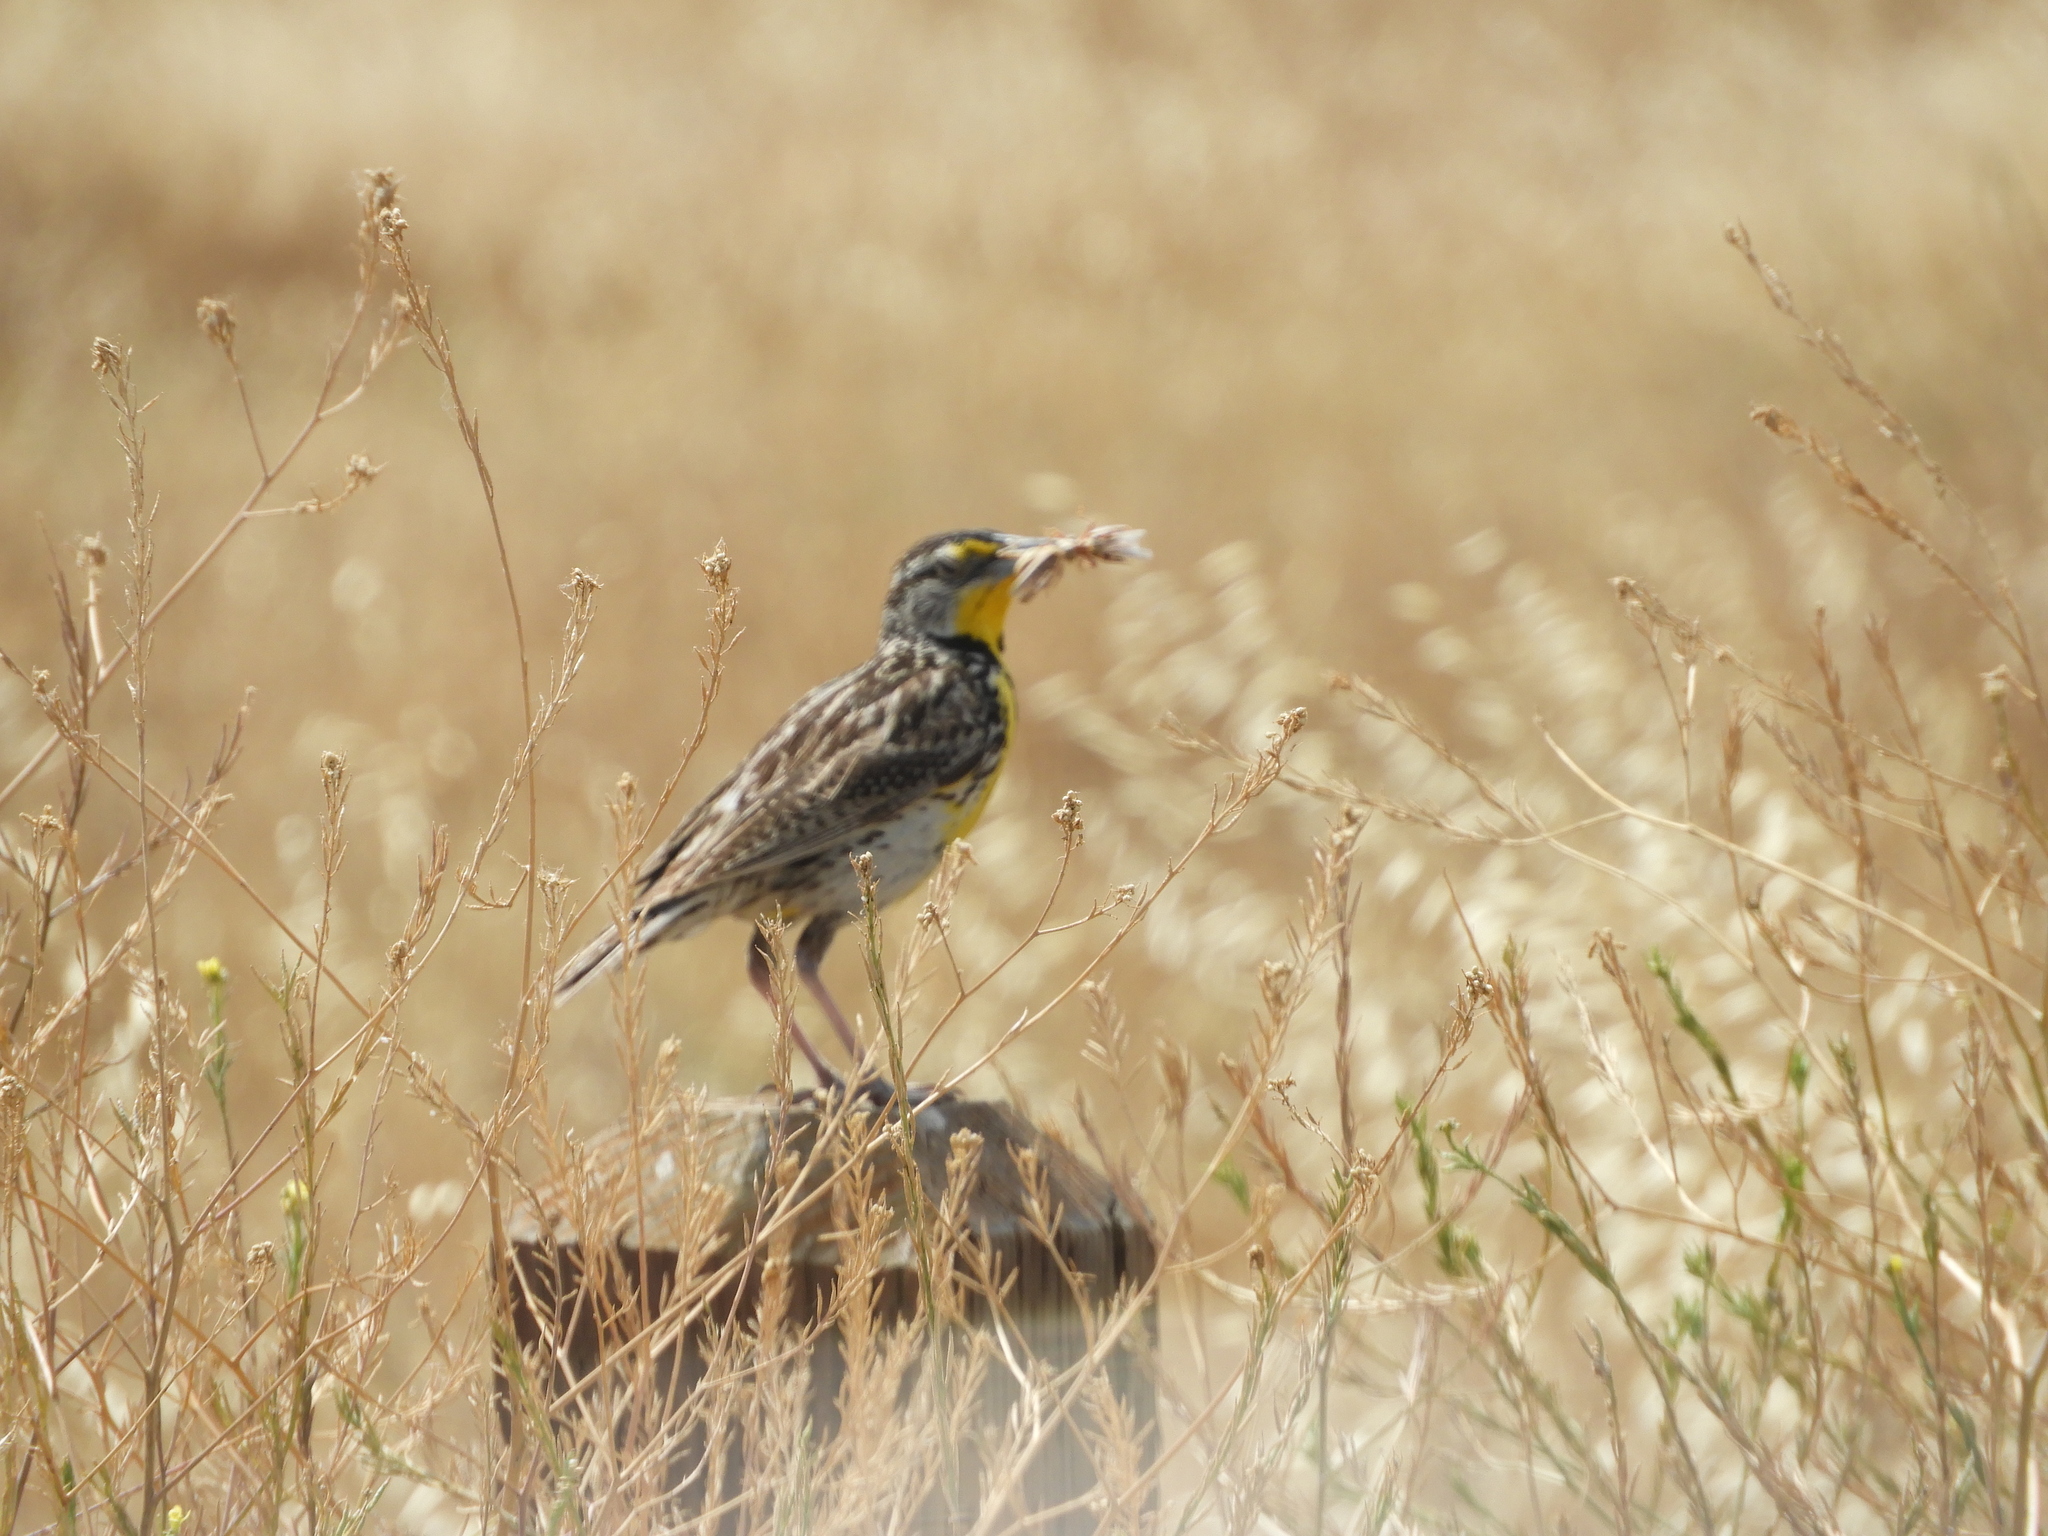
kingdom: Animalia
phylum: Chordata
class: Aves
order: Passeriformes
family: Icteridae
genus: Sturnella
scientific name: Sturnella neglecta
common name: Western meadowlark
